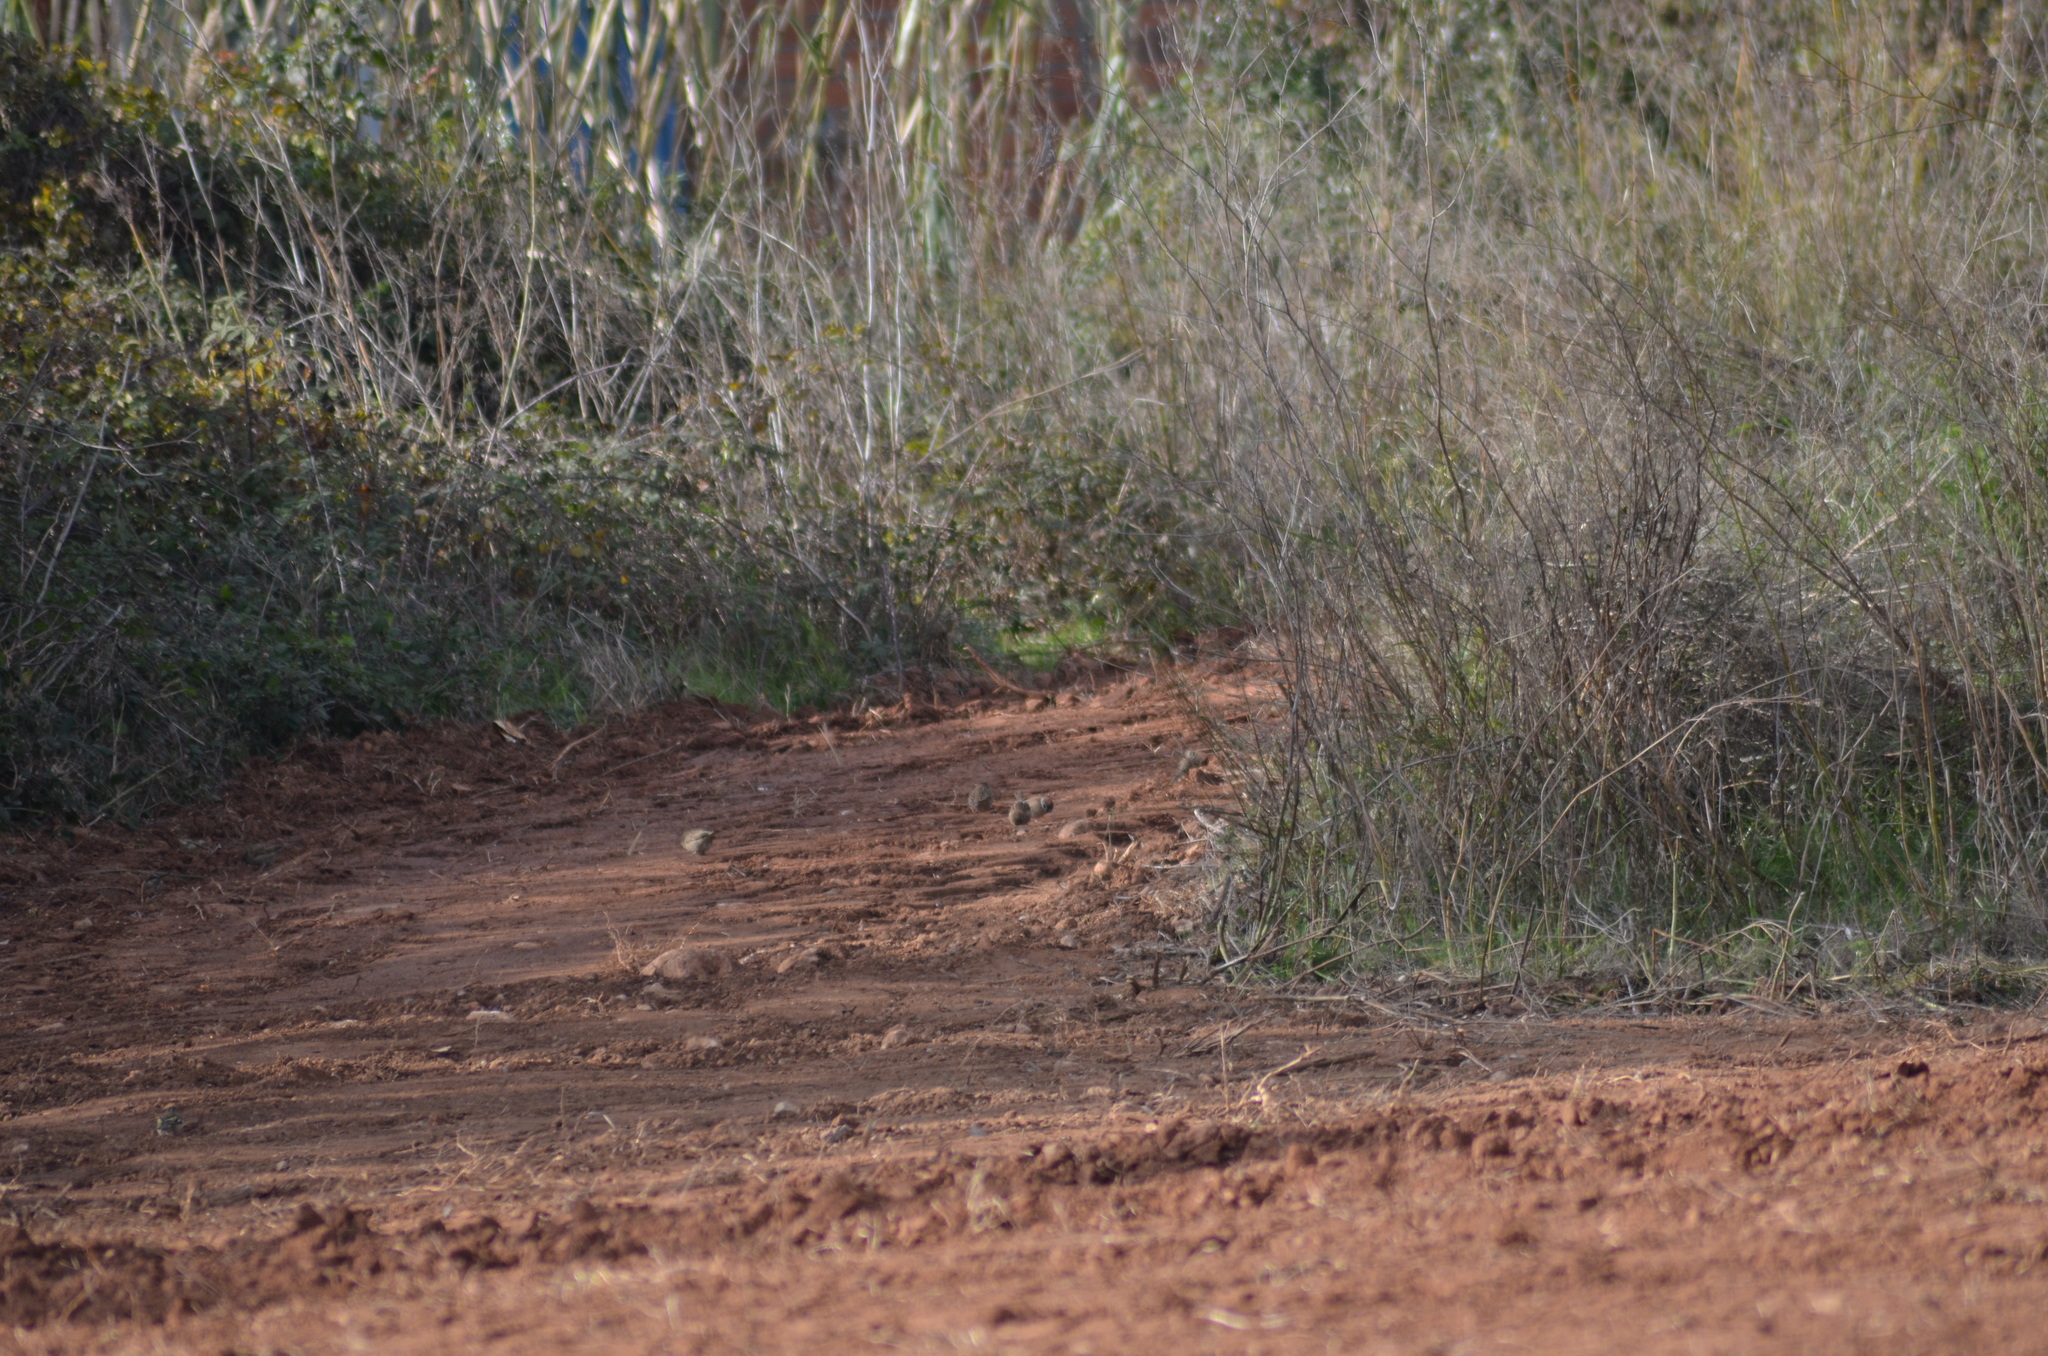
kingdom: Animalia
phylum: Chordata
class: Aves
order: Passeriformes
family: Passeridae
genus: Passer
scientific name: Passer montanus
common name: Eurasian tree sparrow
